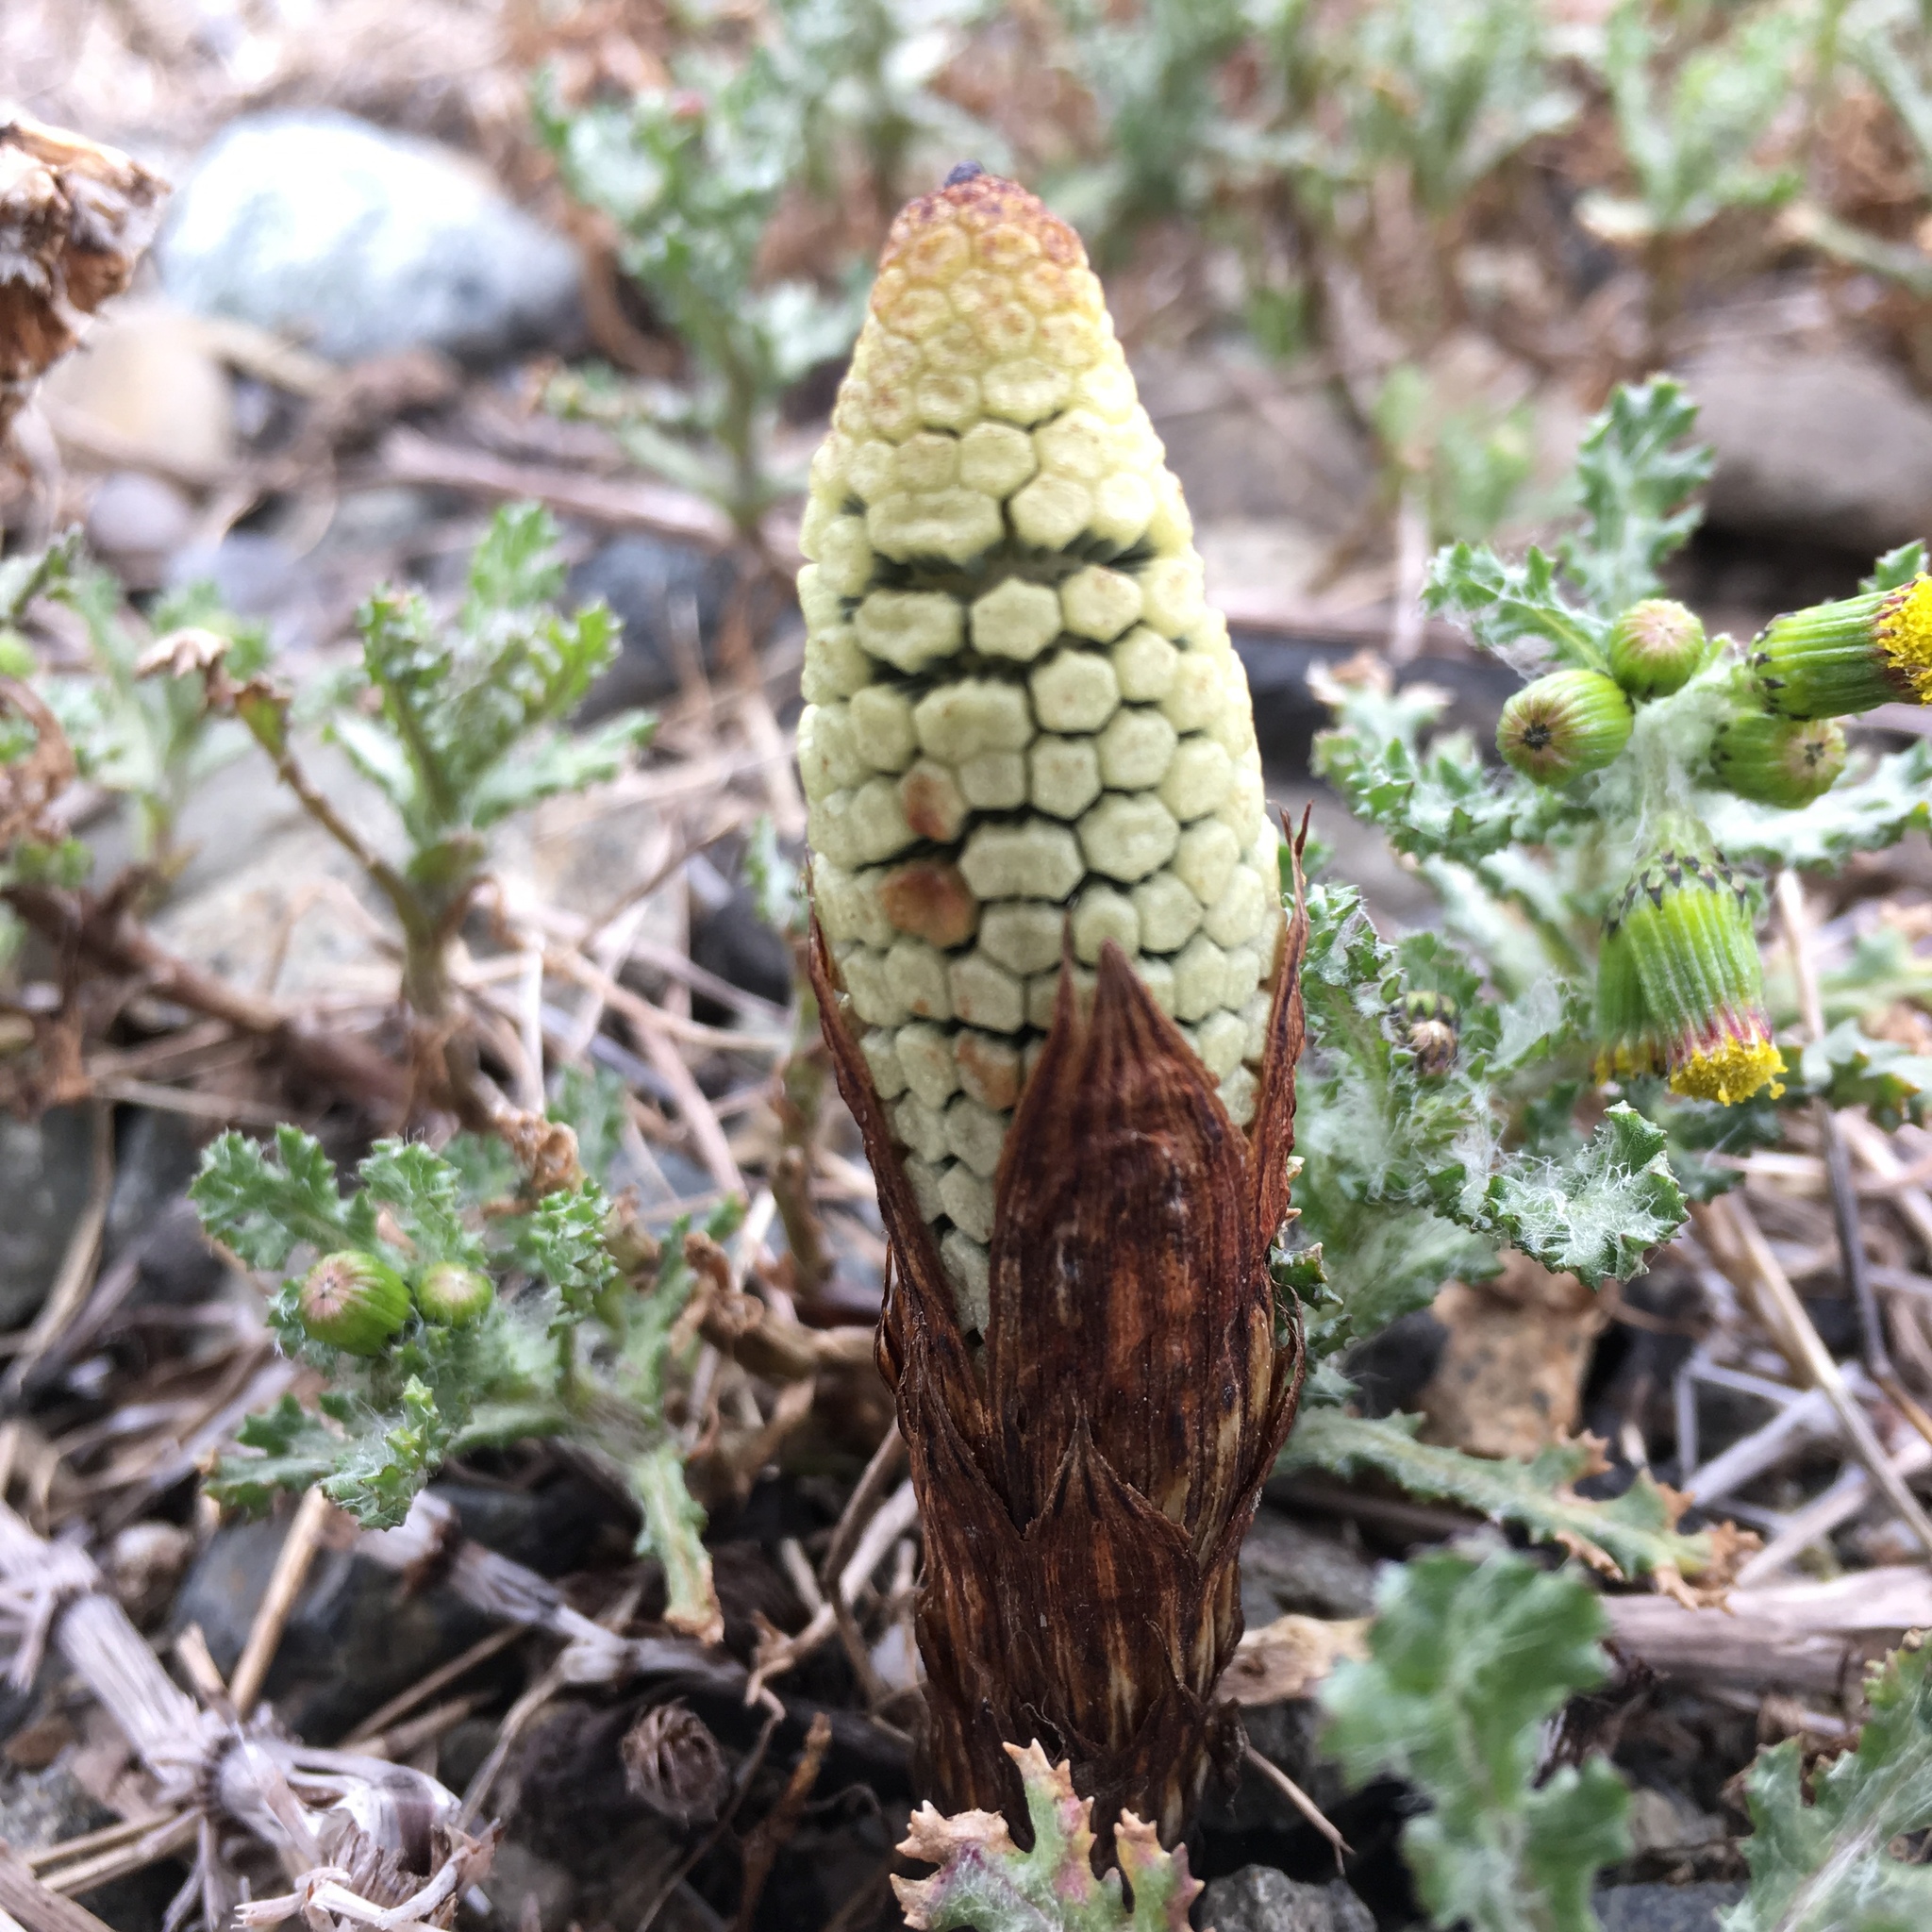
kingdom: Plantae
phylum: Tracheophyta
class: Polypodiopsida
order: Equisetales
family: Equisetaceae
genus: Equisetum
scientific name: Equisetum braunii
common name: Braun's horsetail
